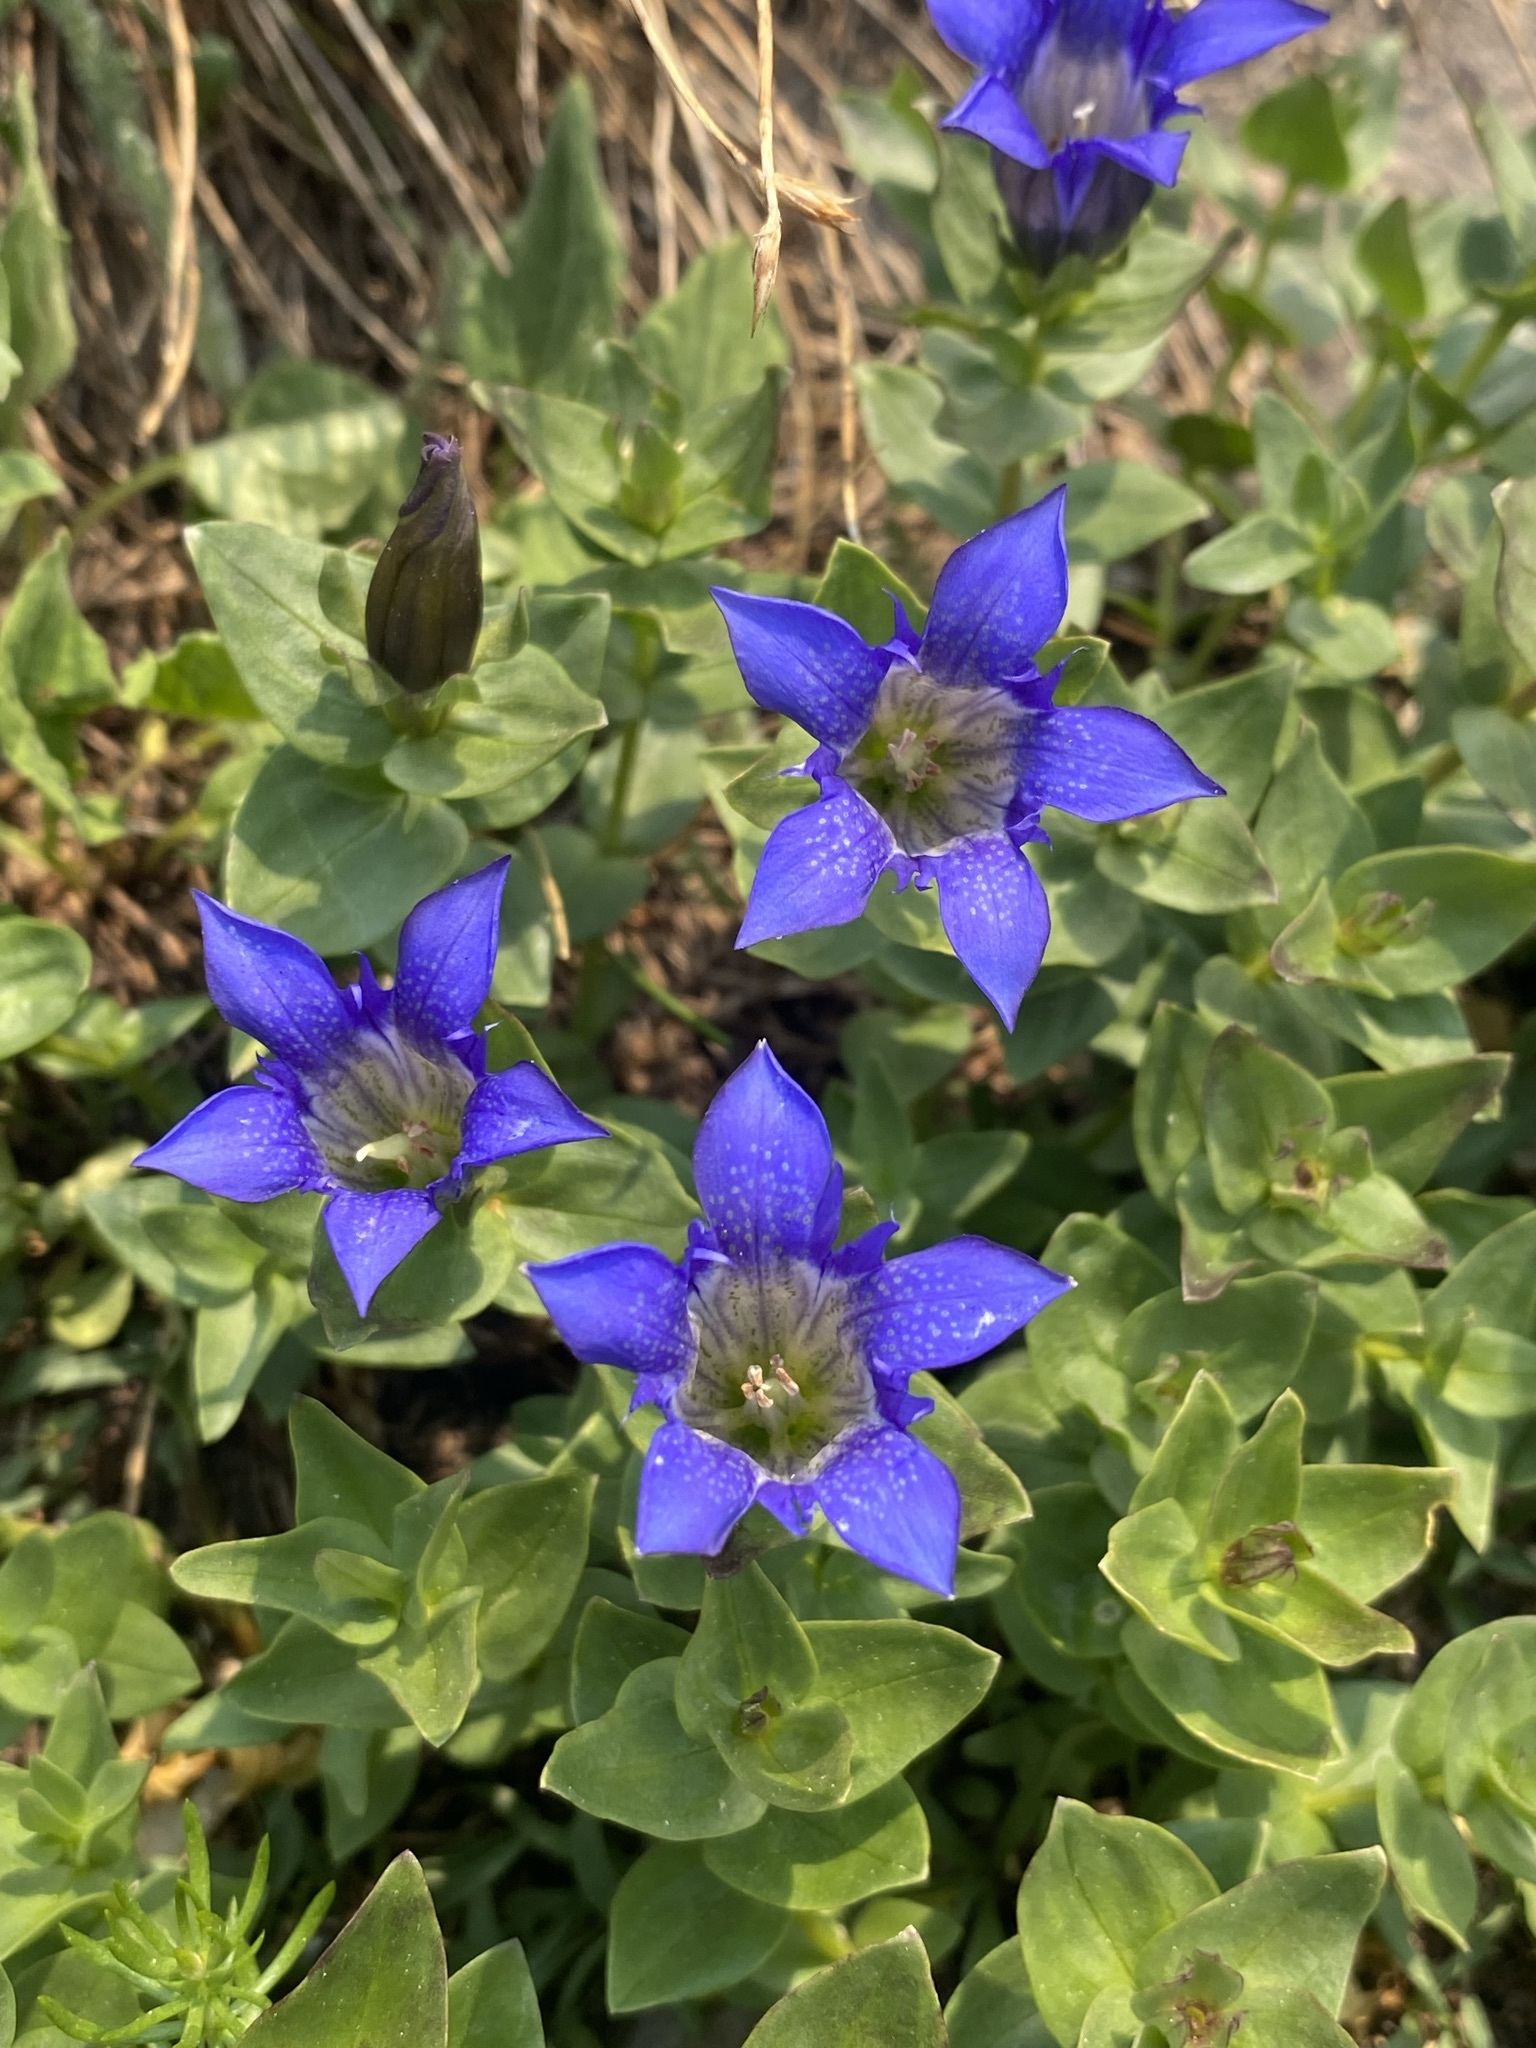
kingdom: Plantae
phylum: Tracheophyta
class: Magnoliopsida
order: Gentianales
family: Gentianaceae
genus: Gentiana
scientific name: Gentiana calycosa
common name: Rainier pleated gentian
